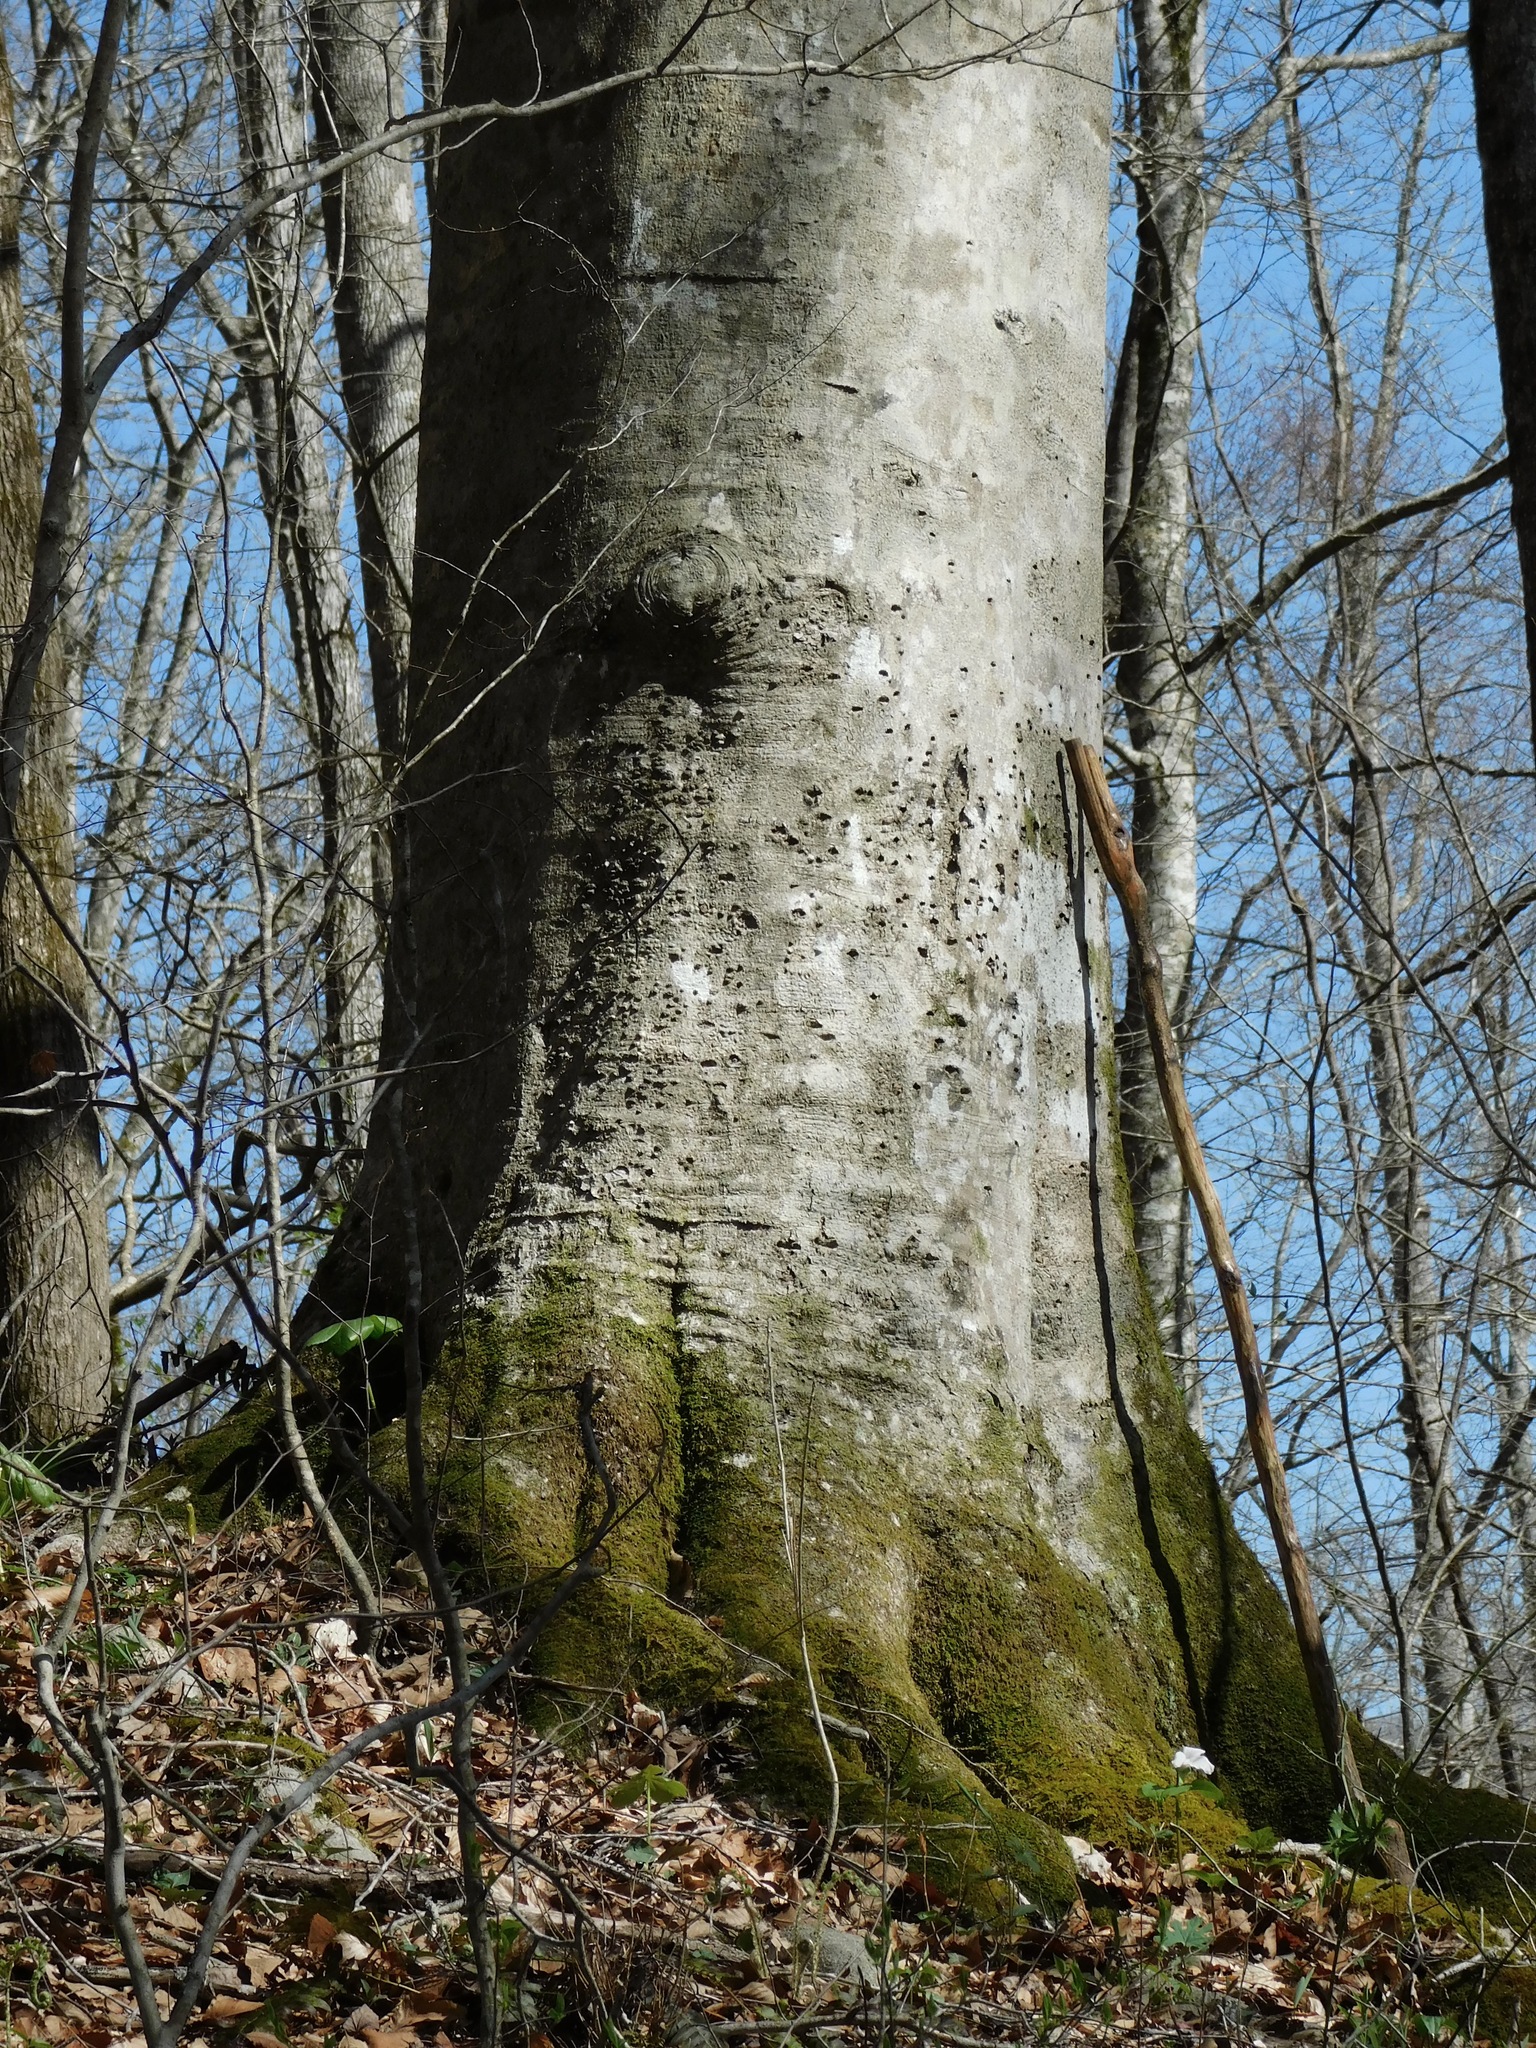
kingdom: Plantae
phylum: Tracheophyta
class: Magnoliopsida
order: Fagales
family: Fagaceae
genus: Fagus
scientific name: Fagus grandifolia
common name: American beech
